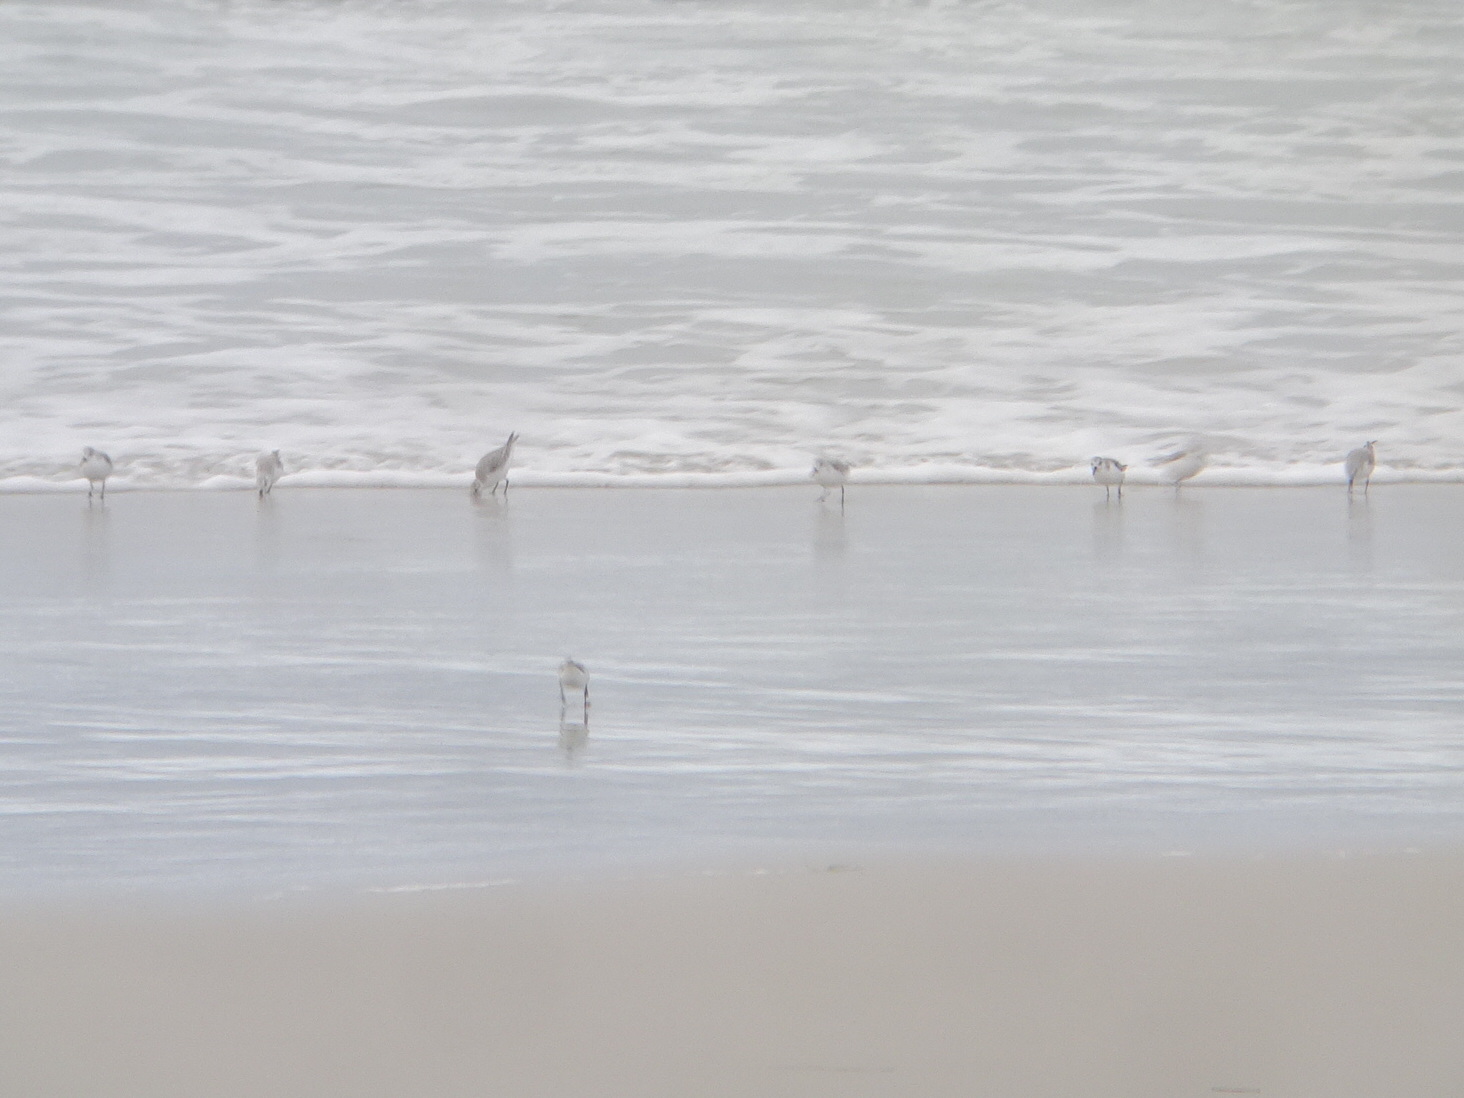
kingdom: Animalia
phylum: Chordata
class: Aves
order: Charadriiformes
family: Scolopacidae
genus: Calidris
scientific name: Calidris alba
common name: Sanderling
